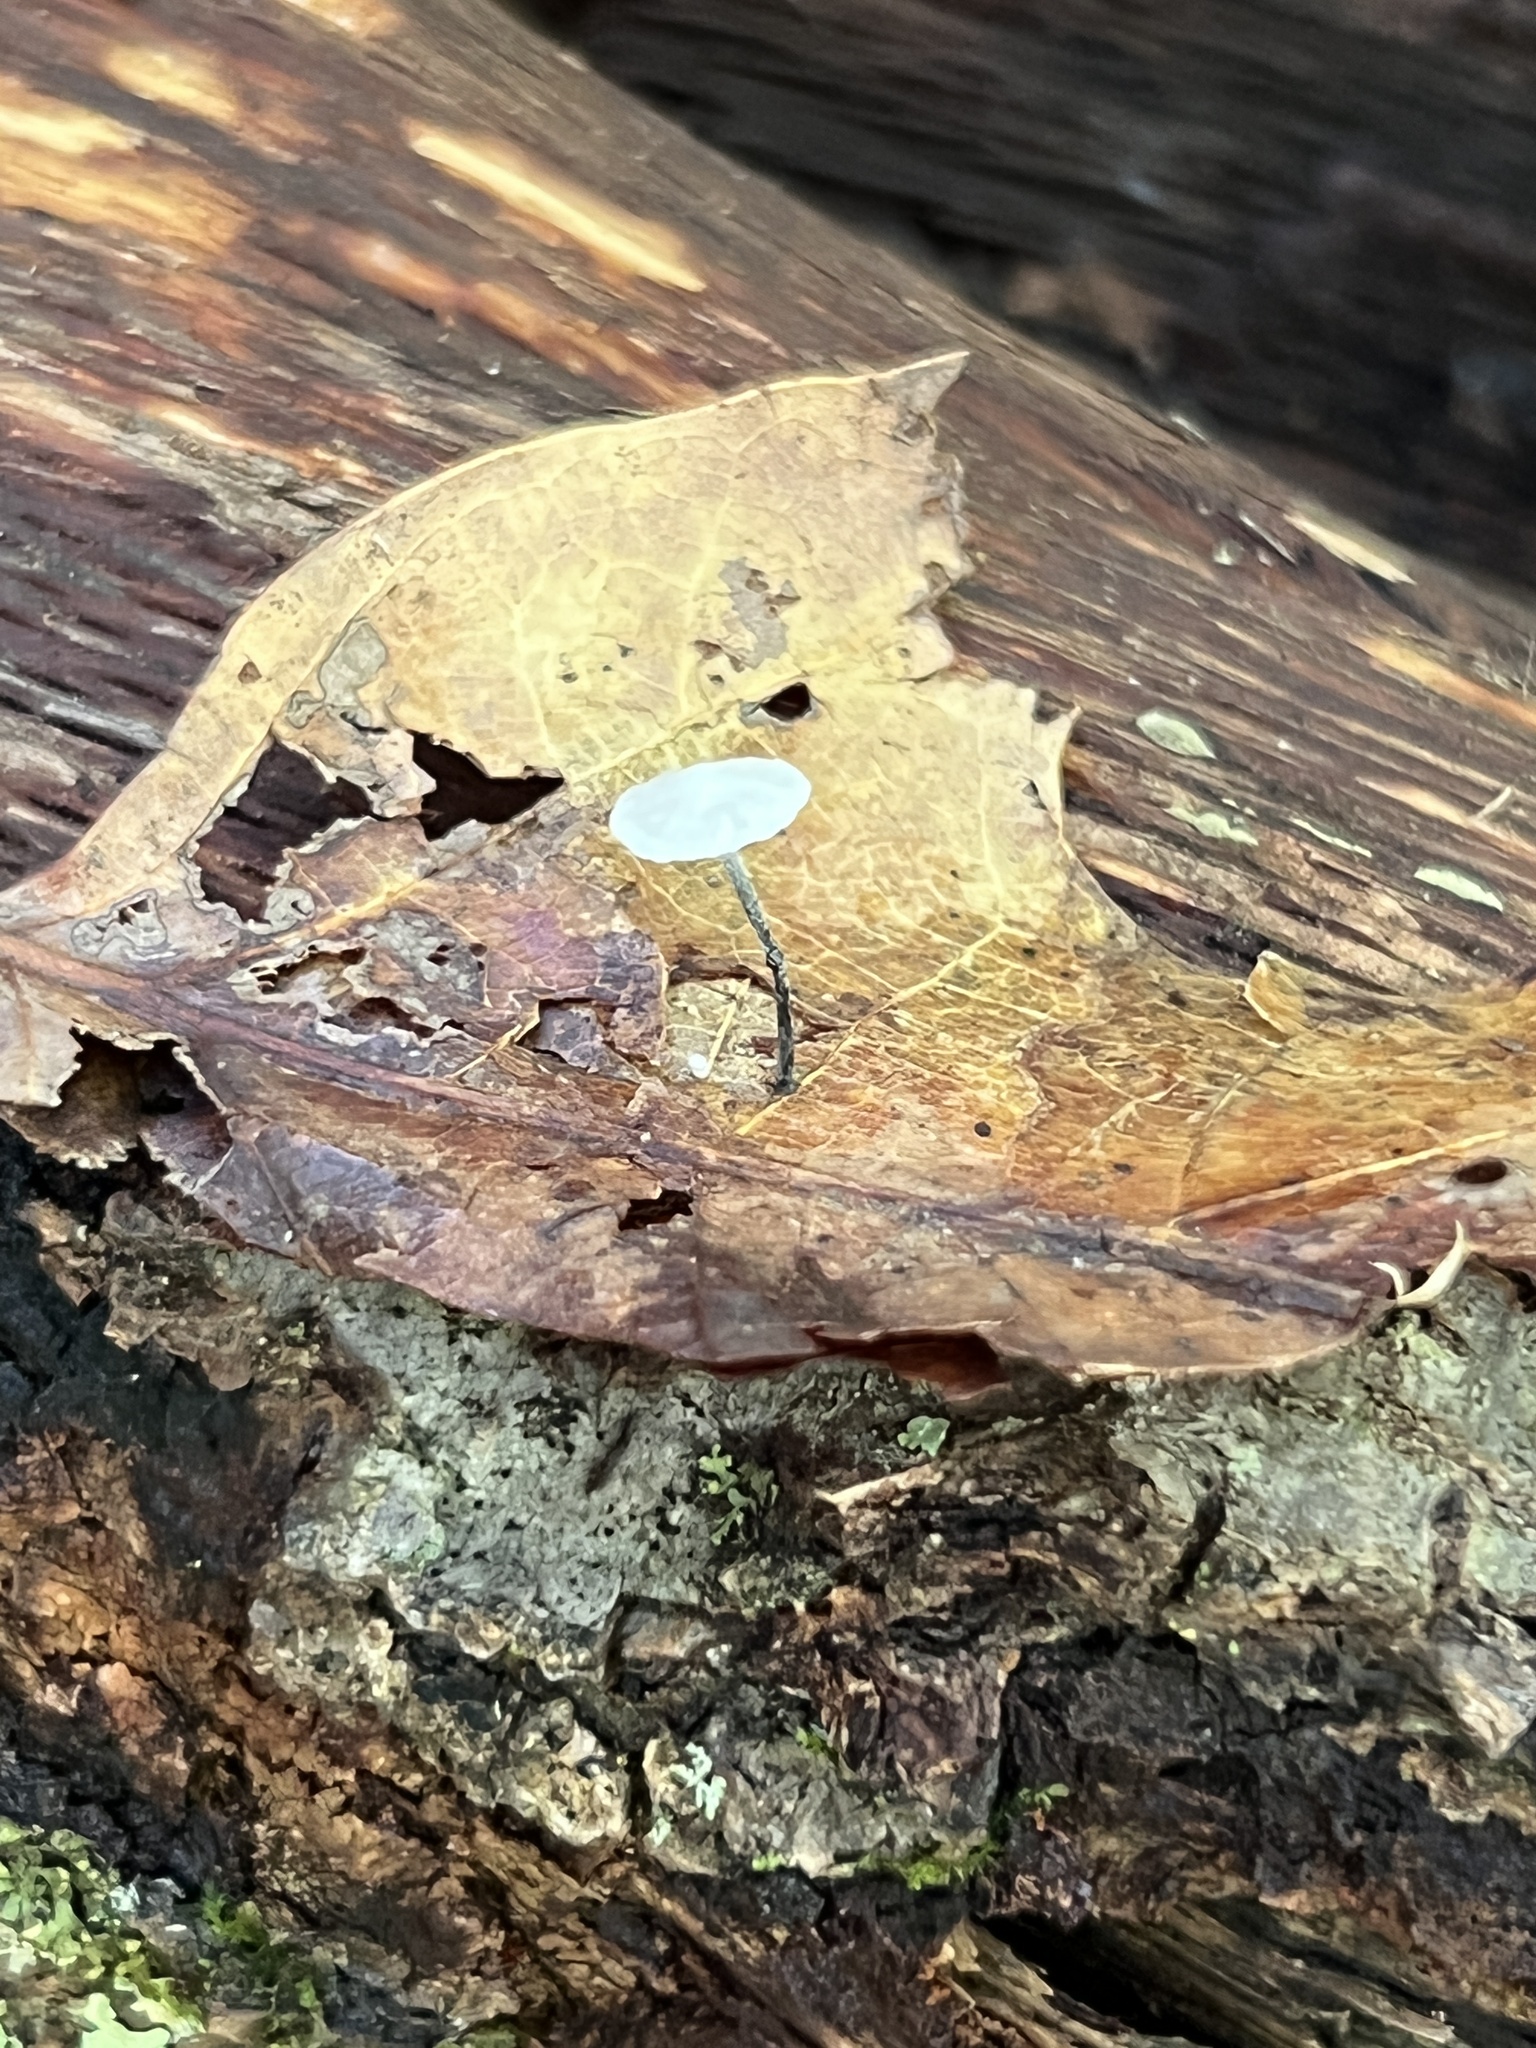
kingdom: Fungi
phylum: Basidiomycota
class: Agaricomycetes
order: Agaricales
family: Marasmiaceae
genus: Tetrapyrgos
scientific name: Tetrapyrgos nigripes
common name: Black-stalked marasmius
